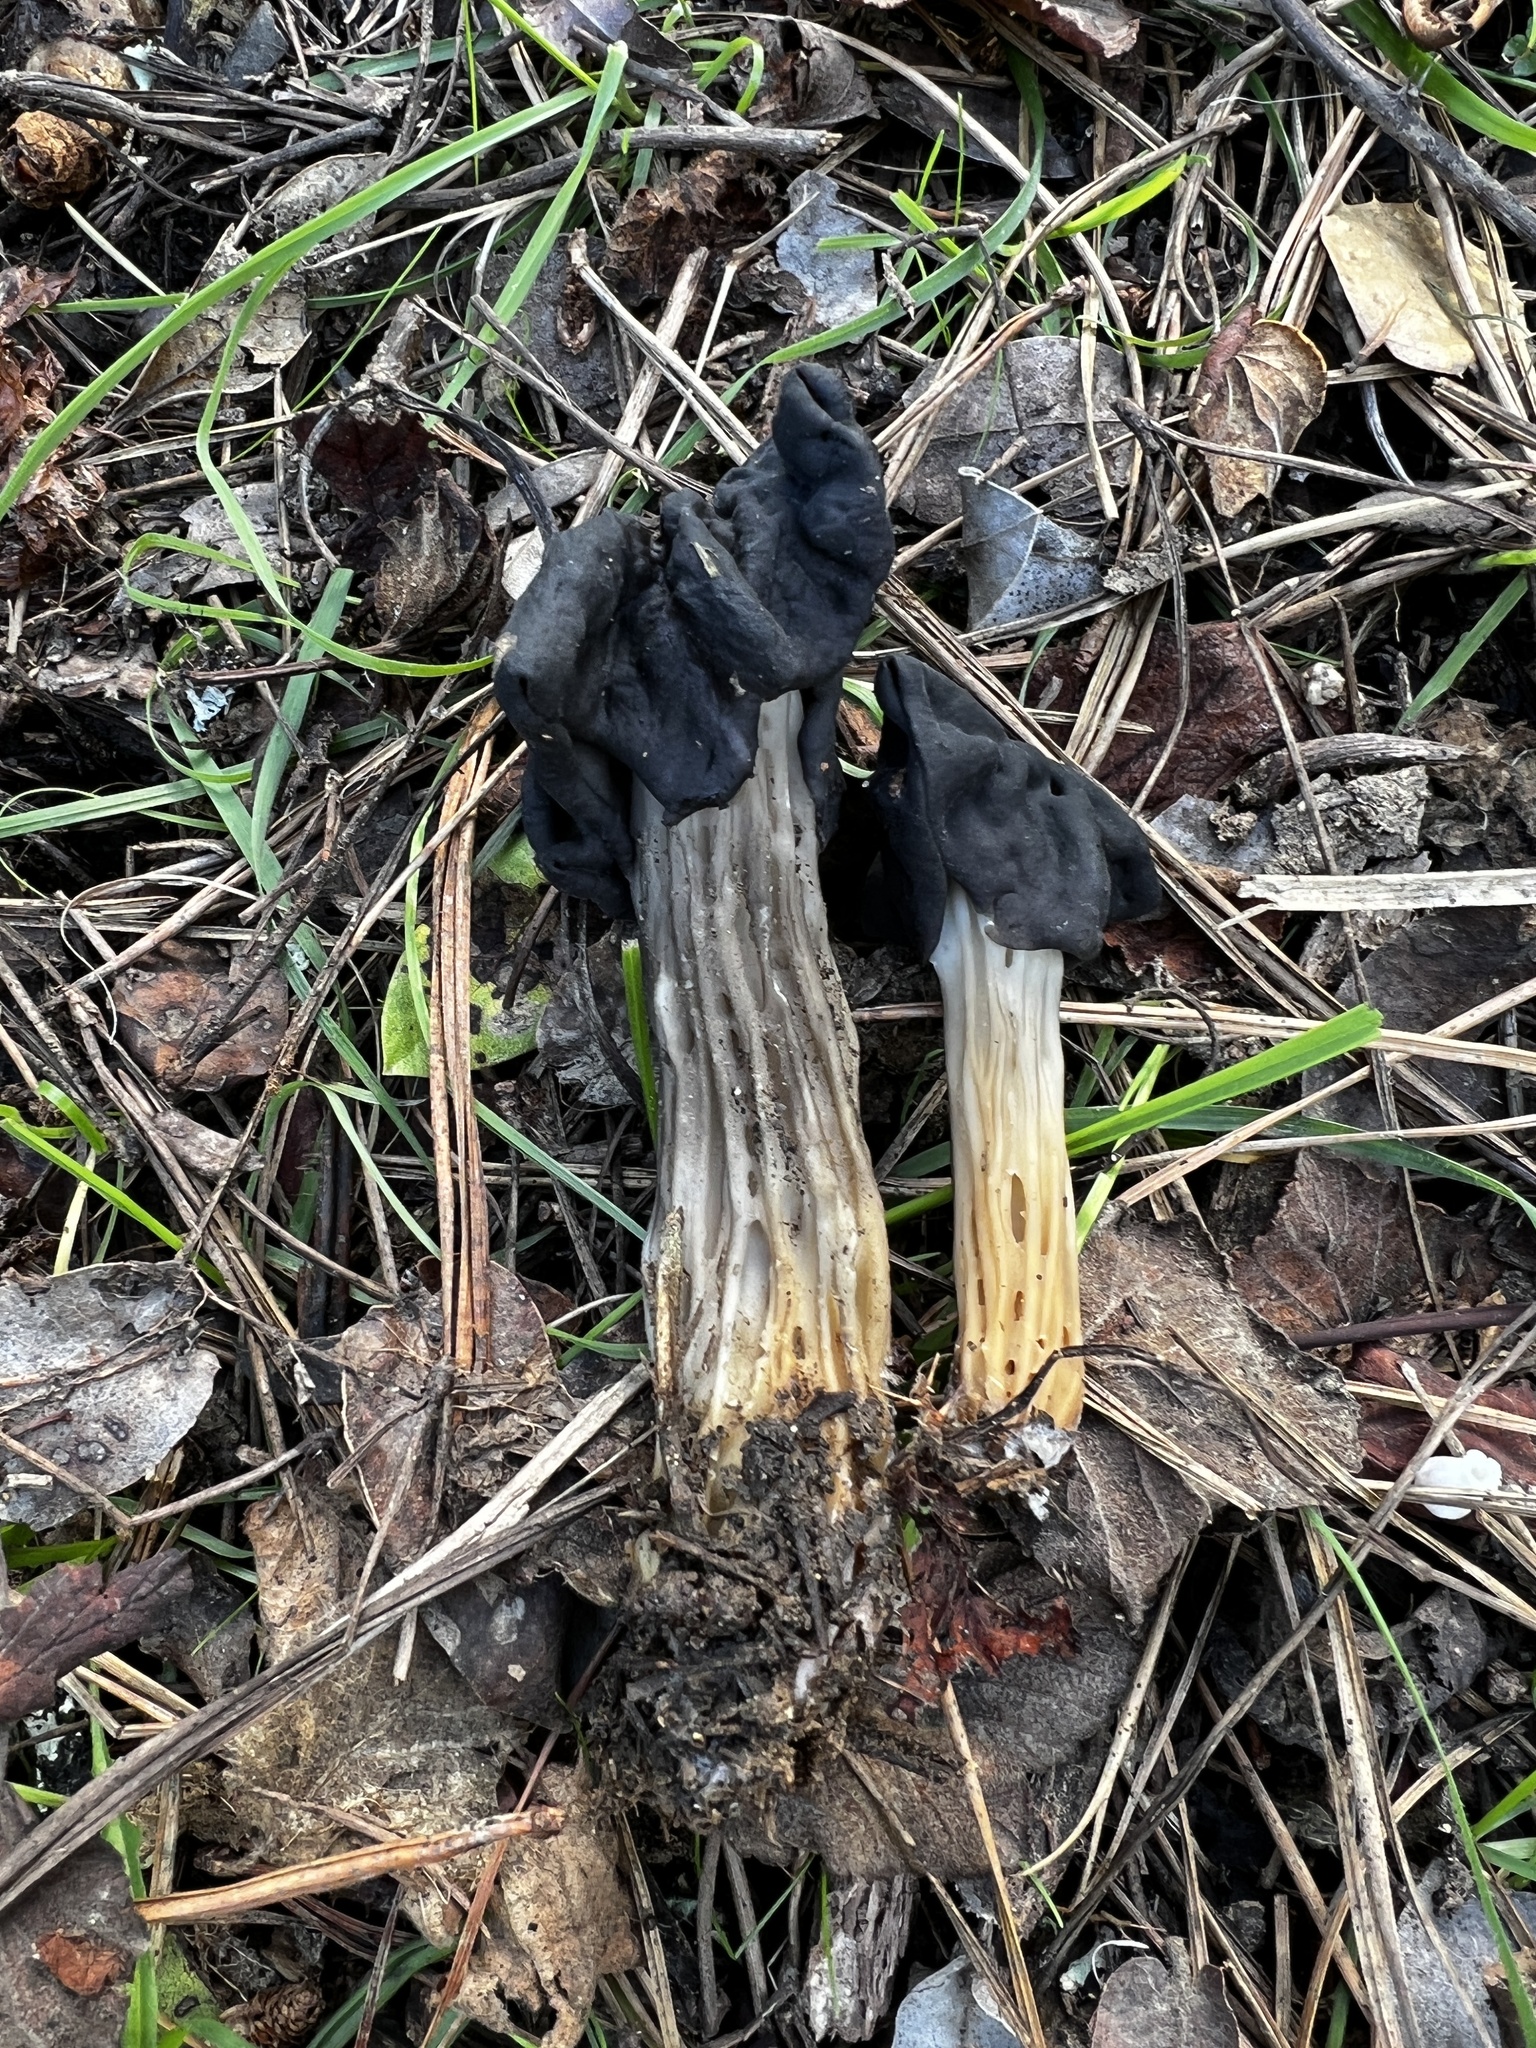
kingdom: Fungi
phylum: Ascomycota
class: Pezizomycetes
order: Pezizales
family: Helvellaceae
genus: Helvella
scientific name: Helvella dryophila
